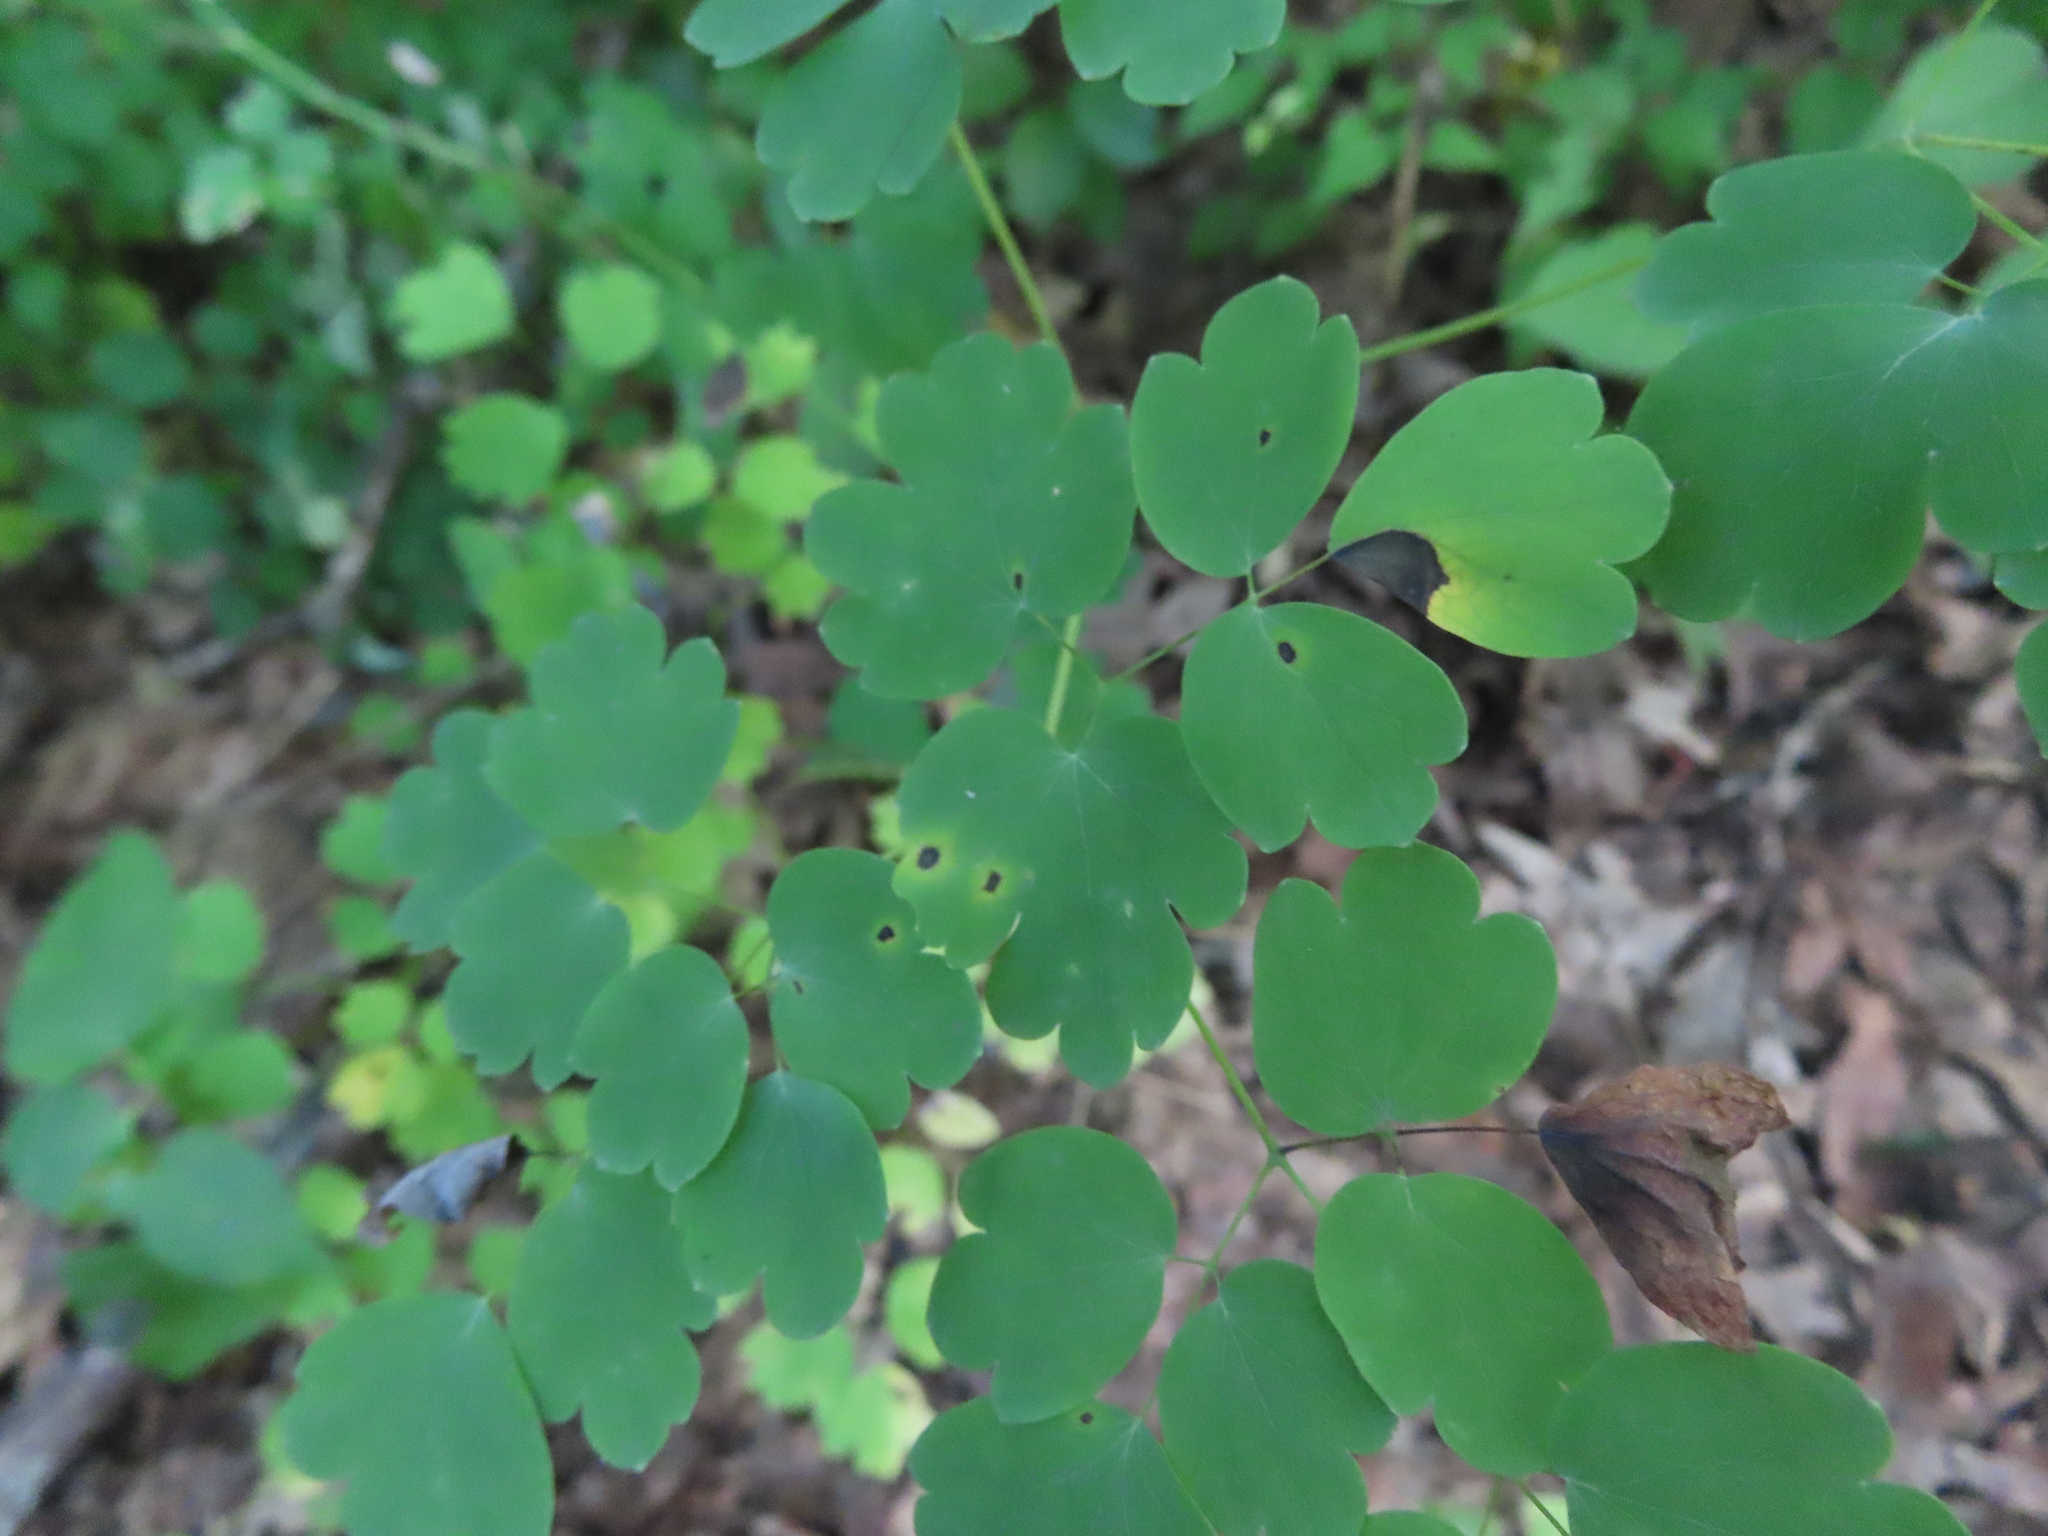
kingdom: Plantae
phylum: Tracheophyta
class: Magnoliopsida
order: Ranunculales
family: Ranunculaceae
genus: Thalictrum
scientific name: Thalictrum dioicum
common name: Early meadow-rue
